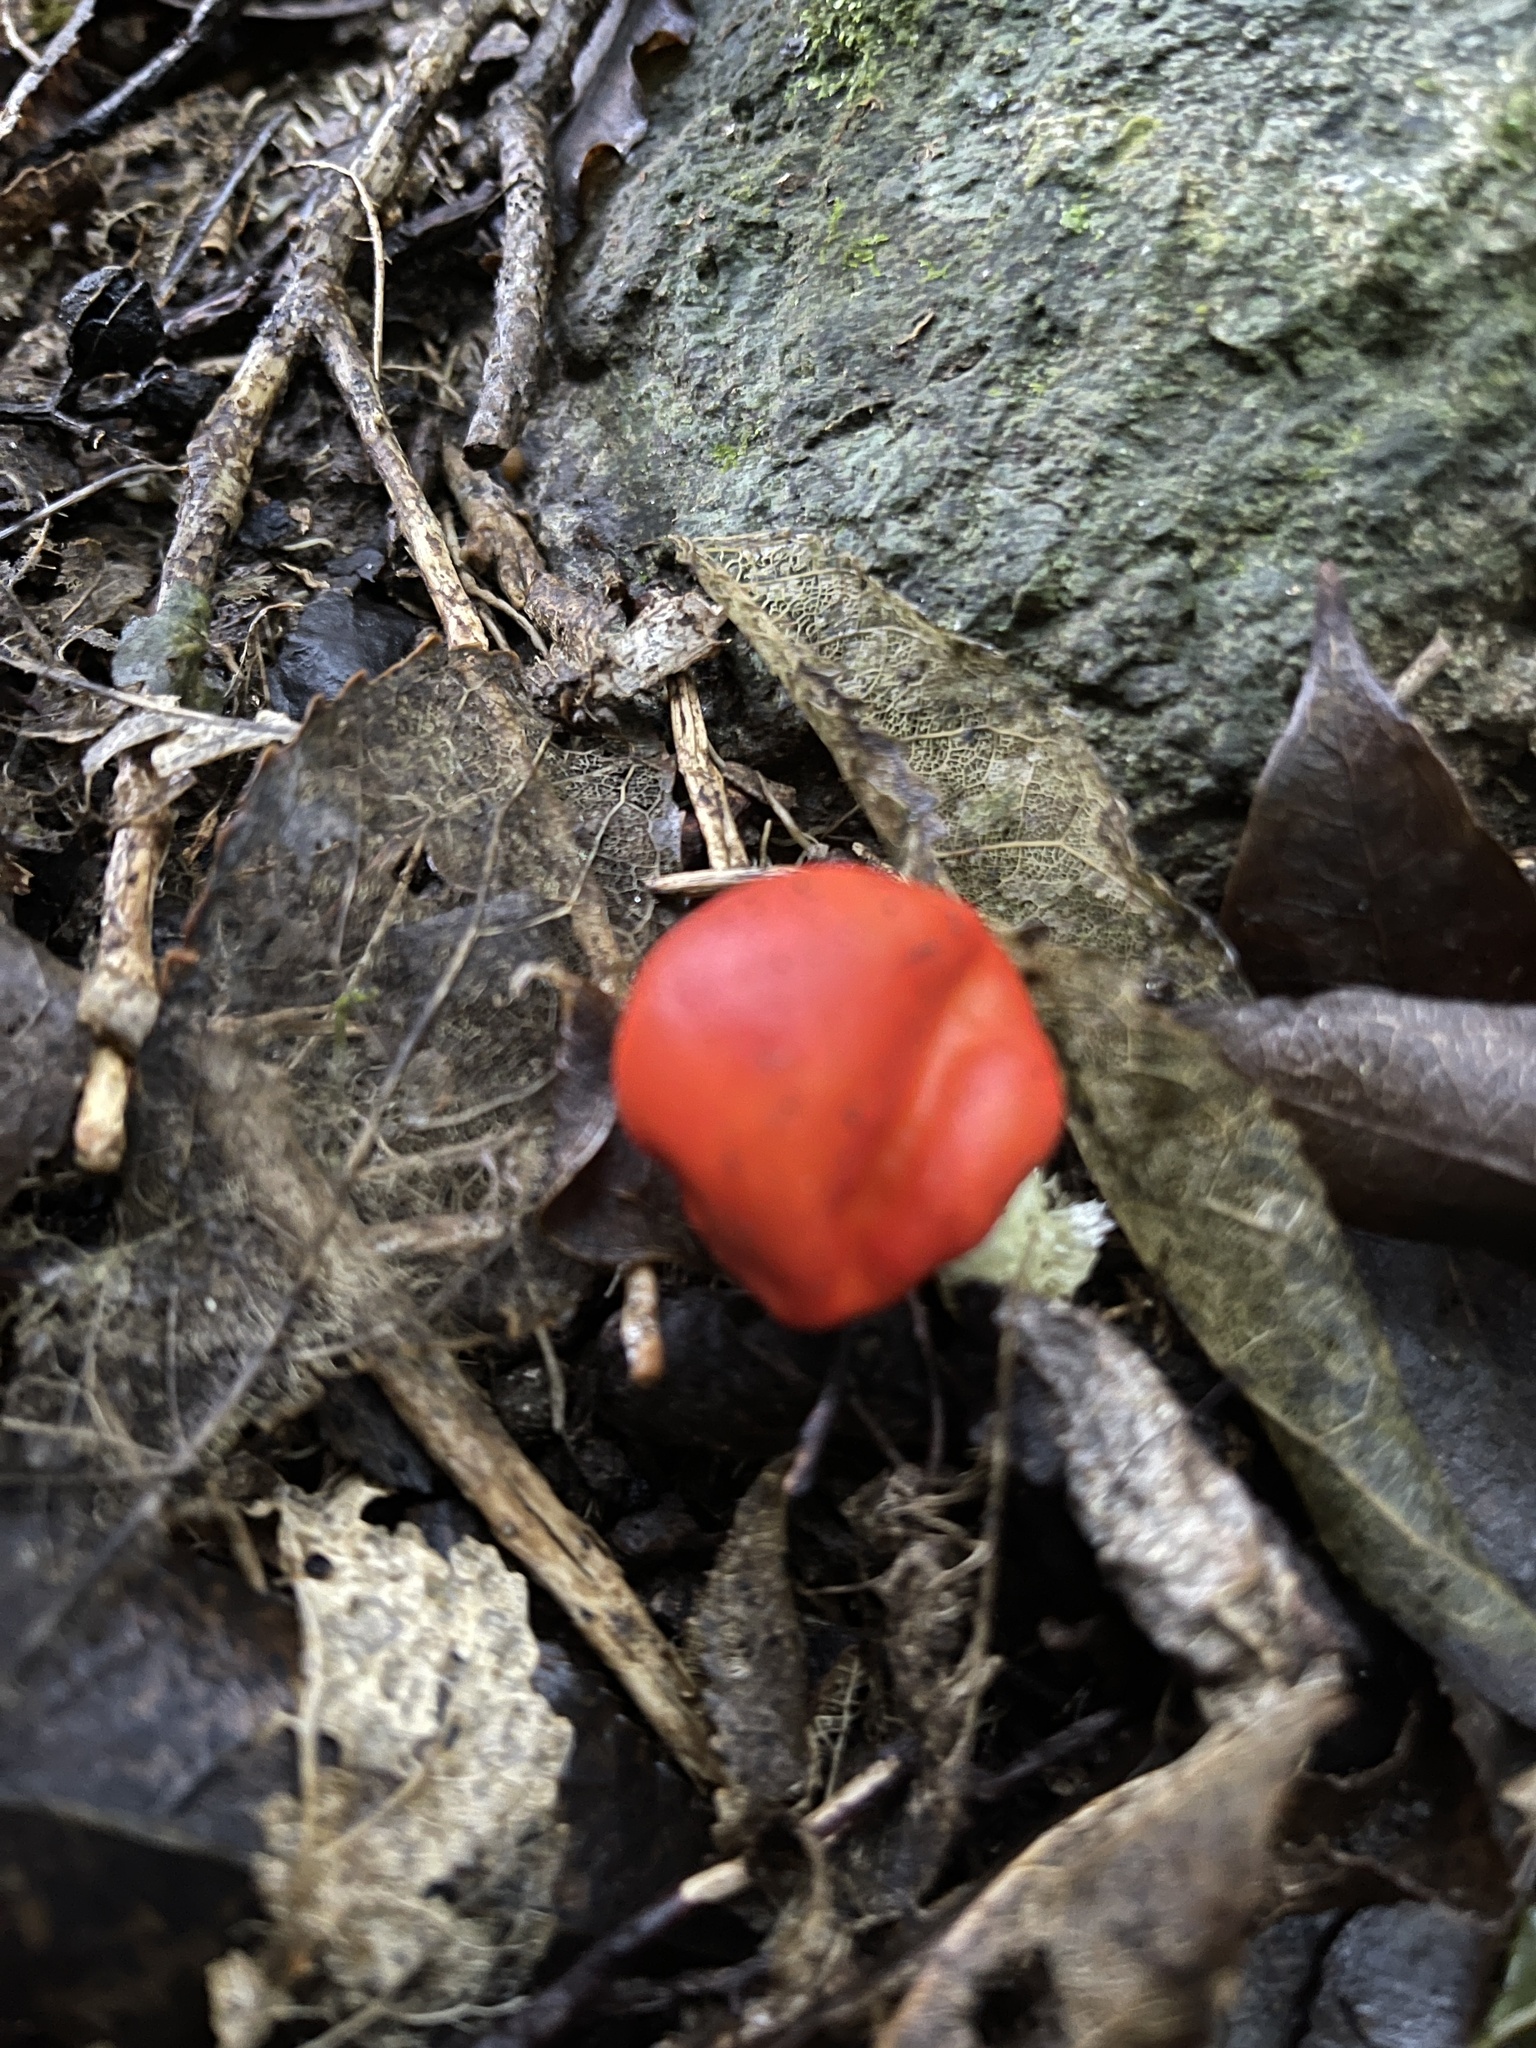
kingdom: Fungi
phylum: Basidiomycota
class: Agaricomycetes
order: Agaricales
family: Strophariaceae
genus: Leratiomyces
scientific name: Leratiomyces erythrocephalus
